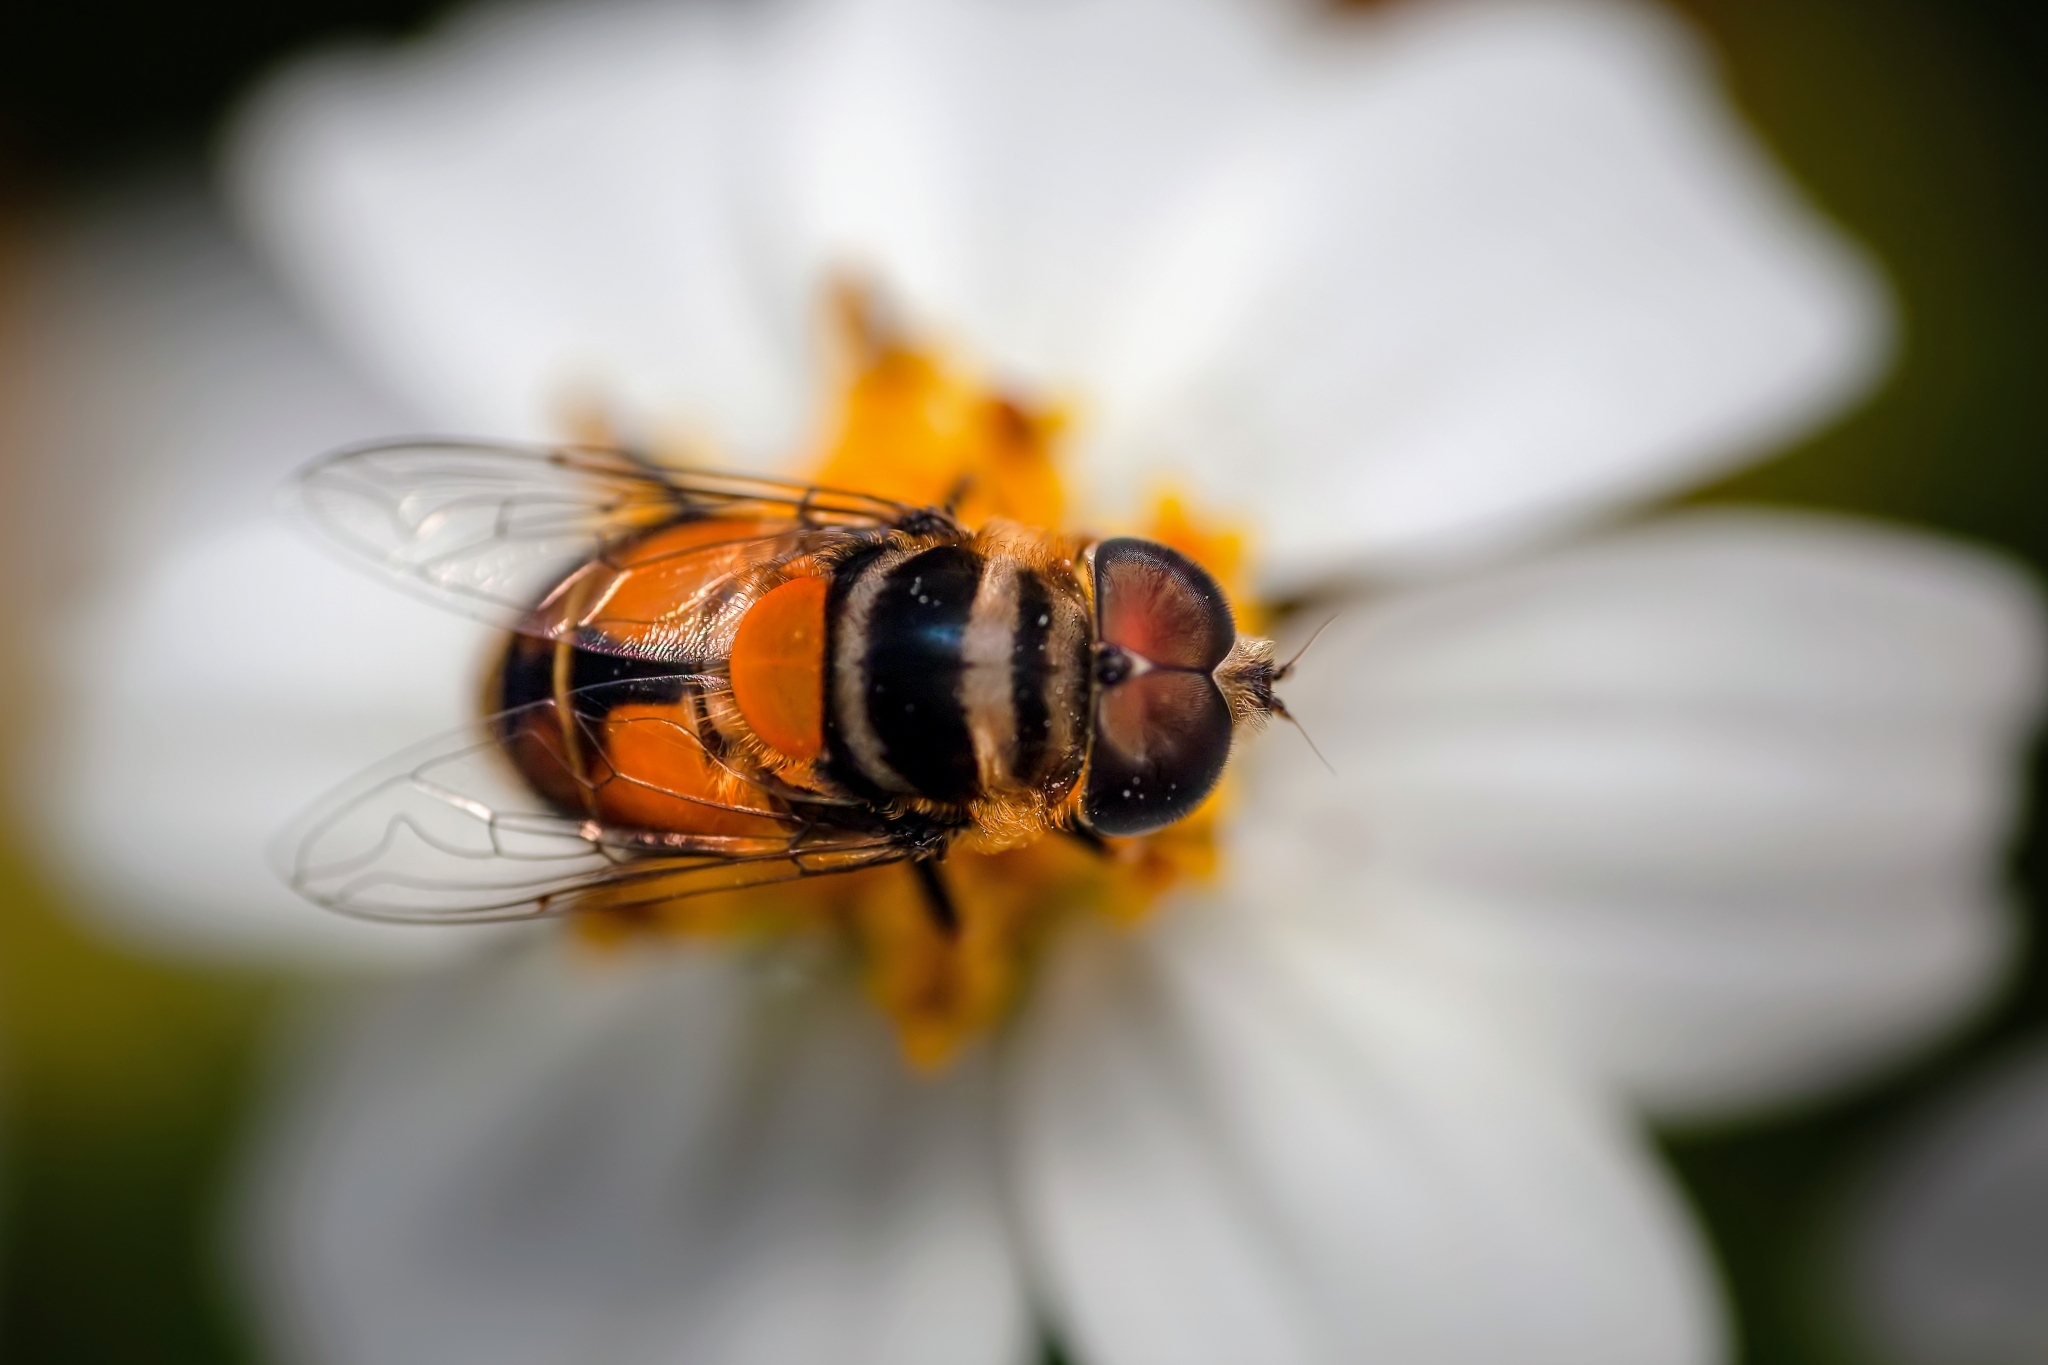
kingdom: Animalia
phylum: Arthropoda
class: Insecta
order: Diptera
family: Syrphidae
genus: Palpada
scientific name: Palpada agrorum
